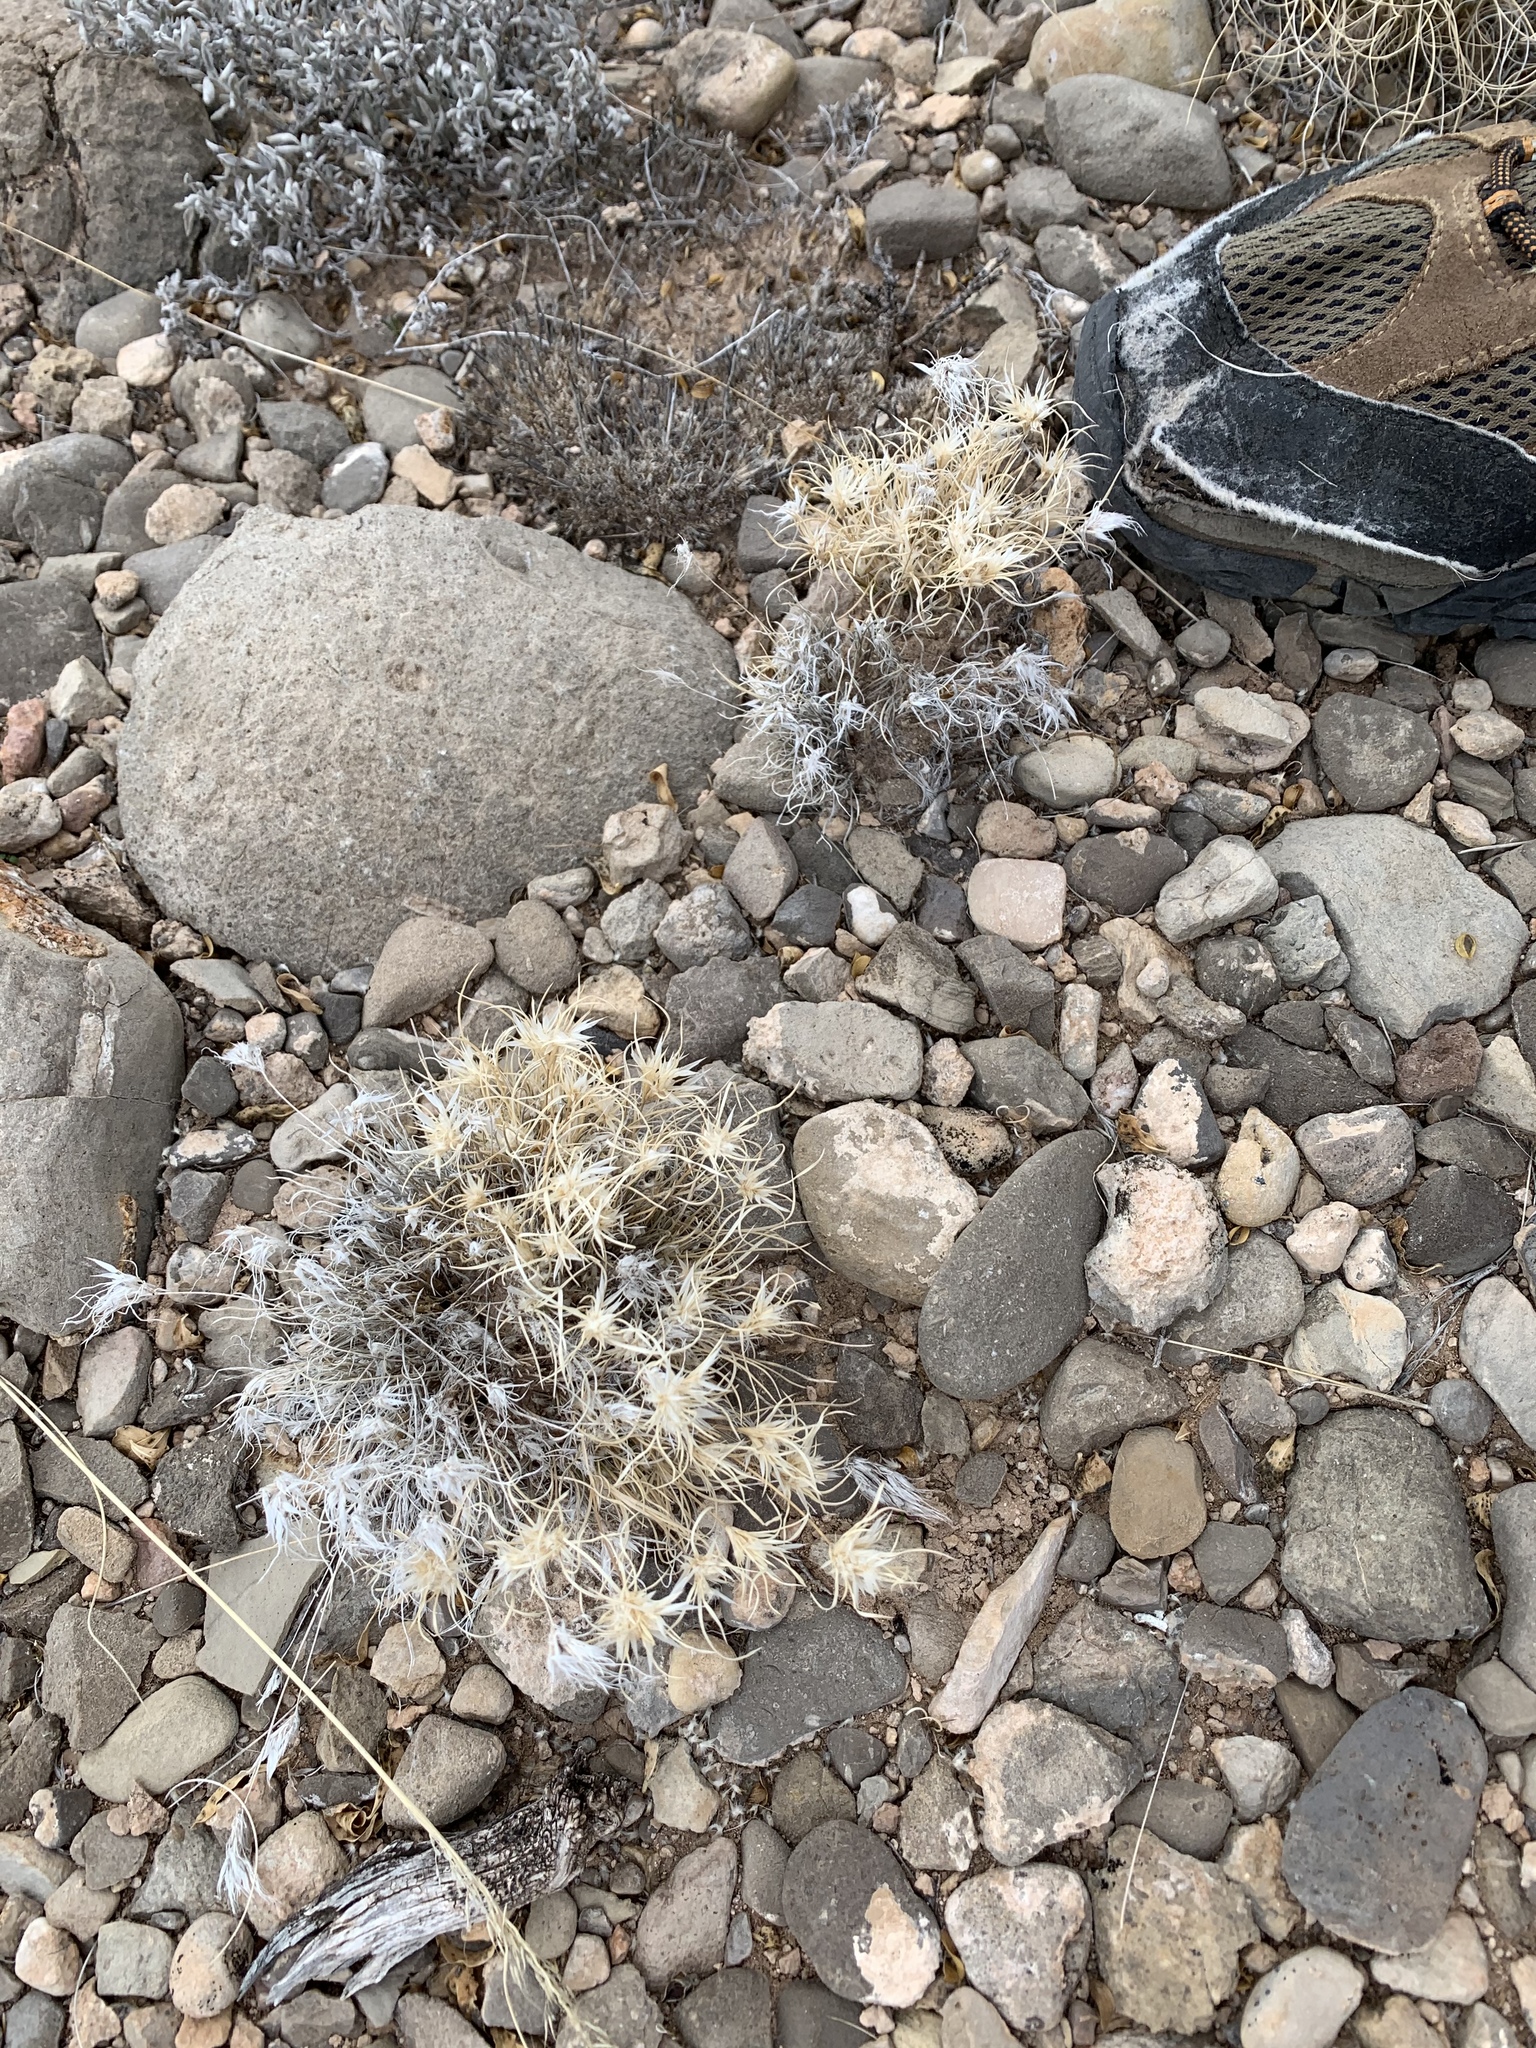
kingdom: Plantae
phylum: Tracheophyta
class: Liliopsida
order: Poales
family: Poaceae
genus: Dasyochloa
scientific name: Dasyochloa pulchella
